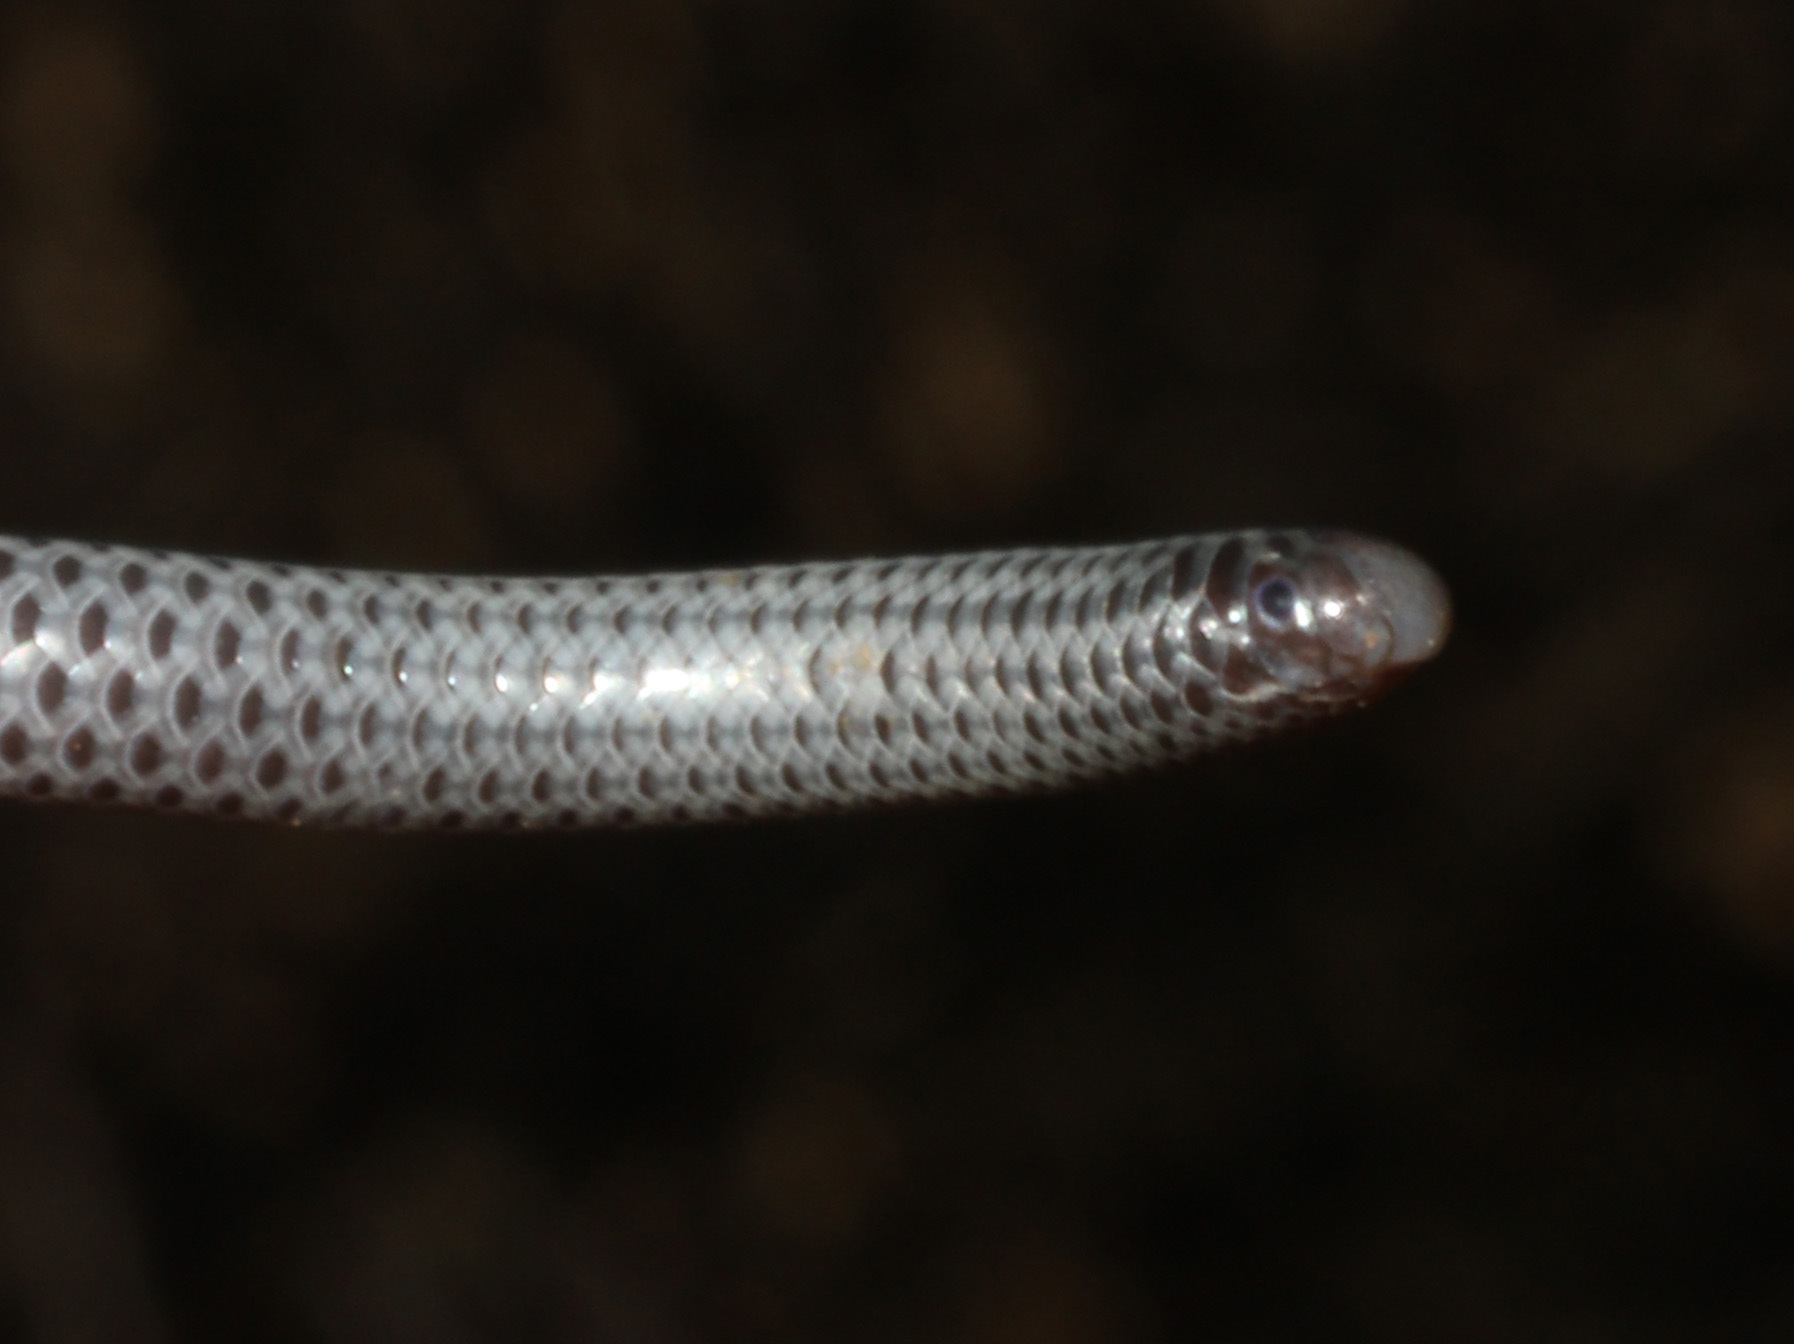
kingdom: Animalia
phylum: Chordata
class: Squamata
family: Leptotyphlopidae
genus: Leptotyphlops
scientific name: Leptotyphlops scutifrons
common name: Peter's thread snake
